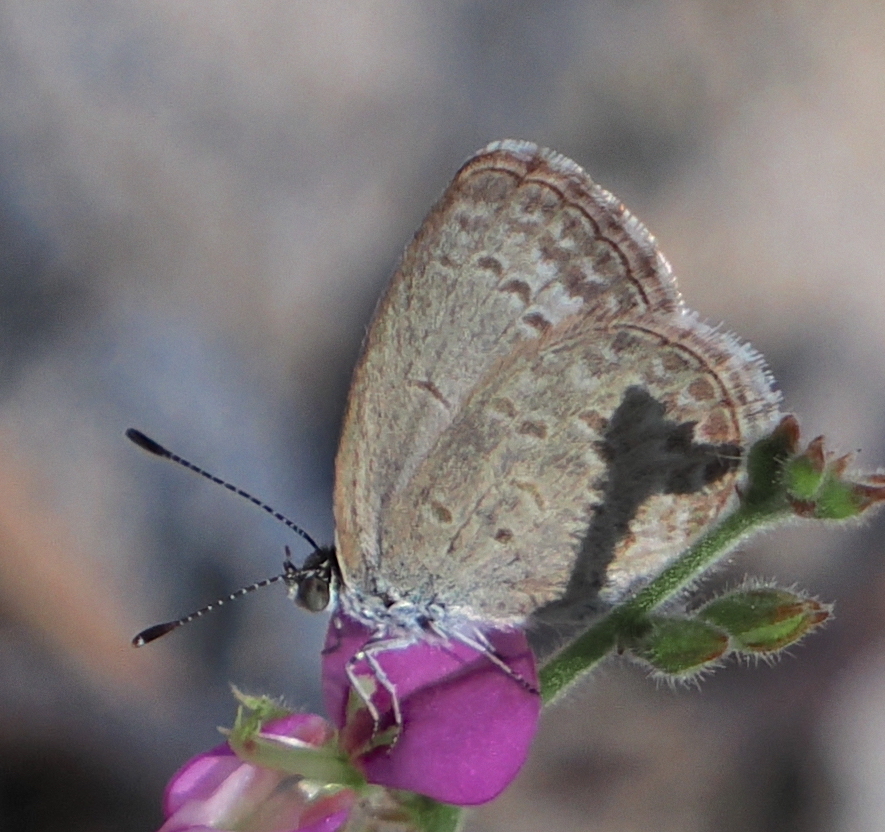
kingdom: Animalia
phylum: Arthropoda
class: Insecta
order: Lepidoptera
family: Lycaenidae
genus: Zizina
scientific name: Zizina otis
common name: Lesser grass blue
